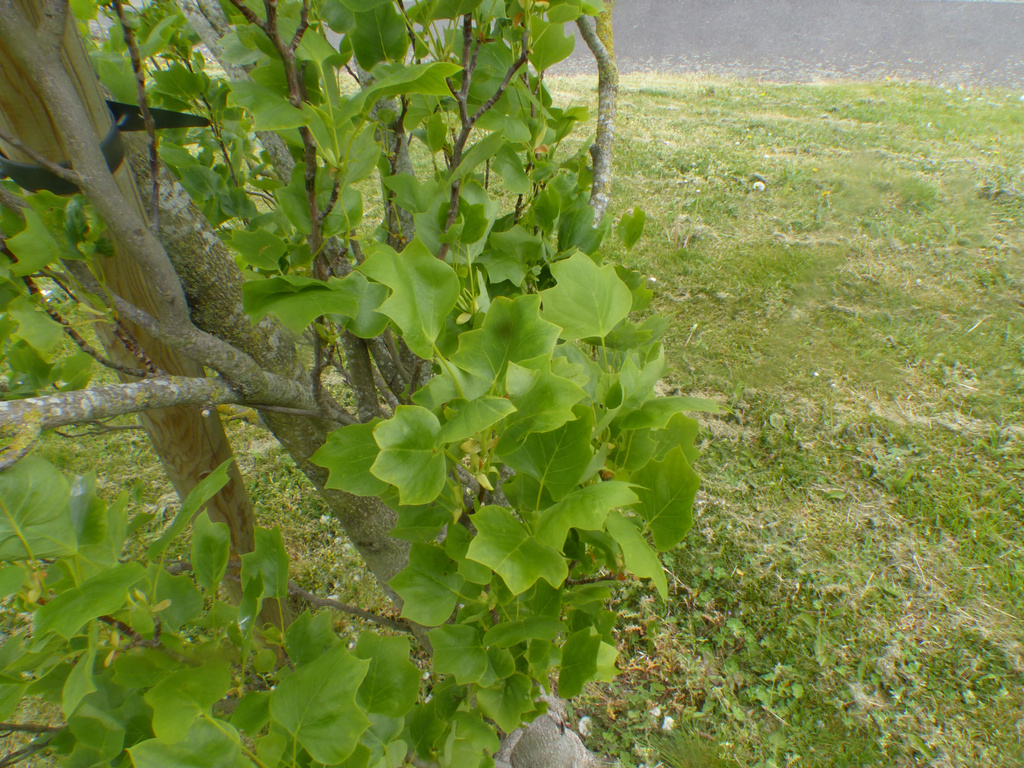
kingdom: Plantae
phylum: Tracheophyta
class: Magnoliopsida
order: Magnoliales
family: Magnoliaceae
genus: Liriodendron
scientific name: Liriodendron tulipifera
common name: Tulip tree
